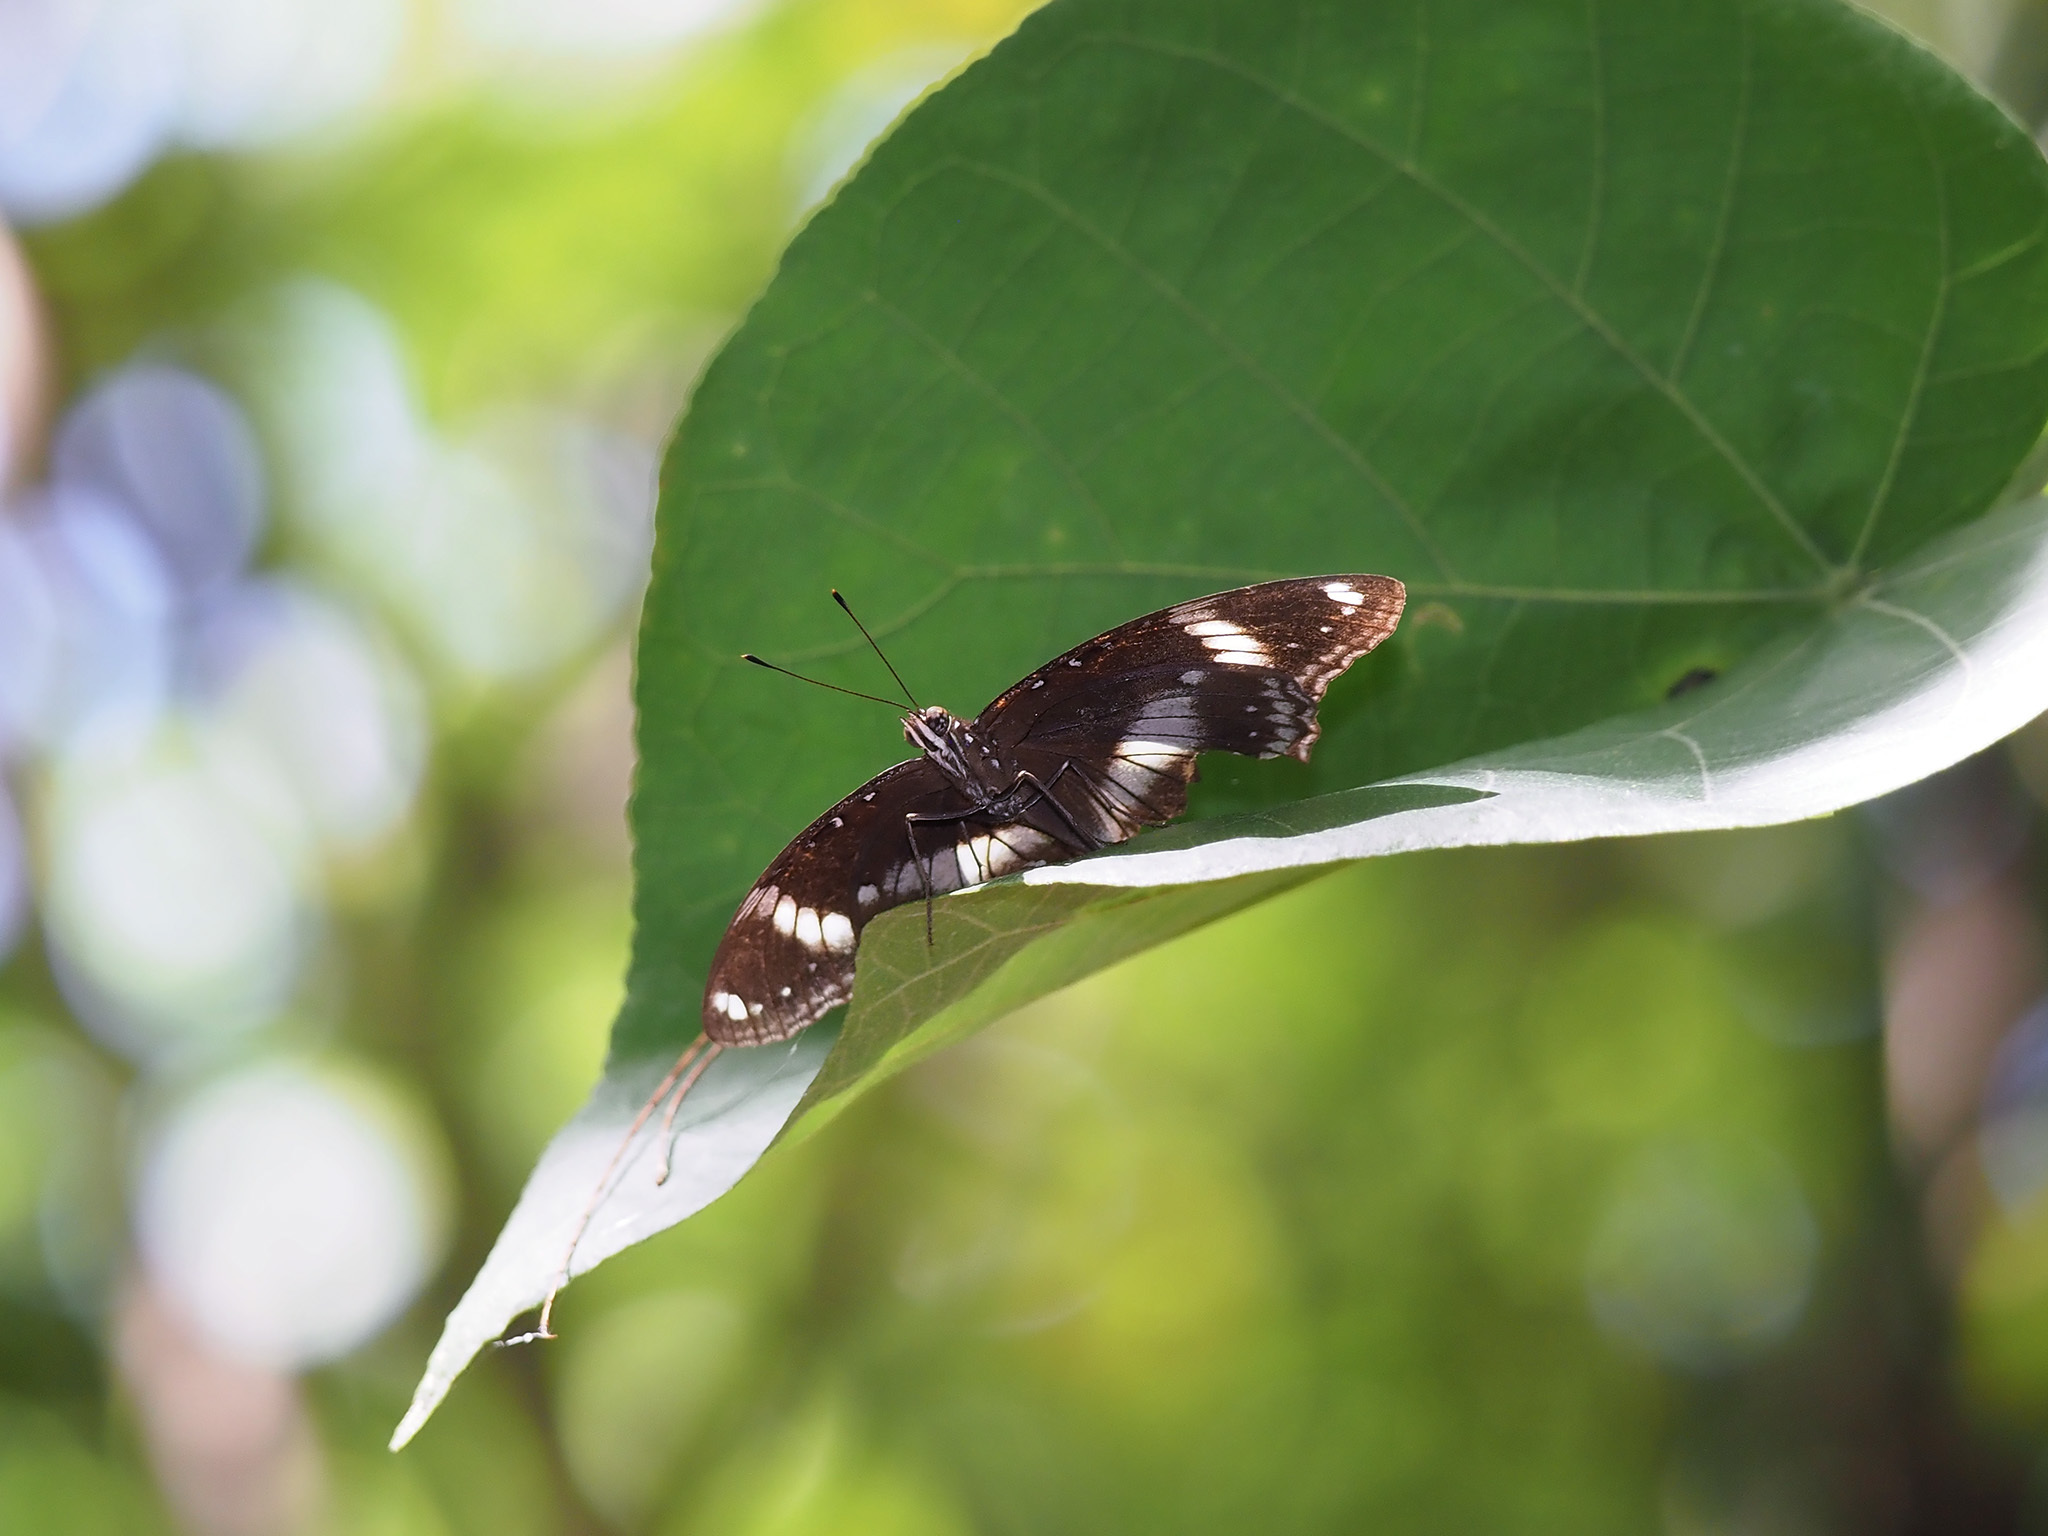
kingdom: Animalia
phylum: Arthropoda
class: Insecta
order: Lepidoptera
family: Nymphalidae
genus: Hypolimnas
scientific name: Hypolimnas bolina
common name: Great eggfly
